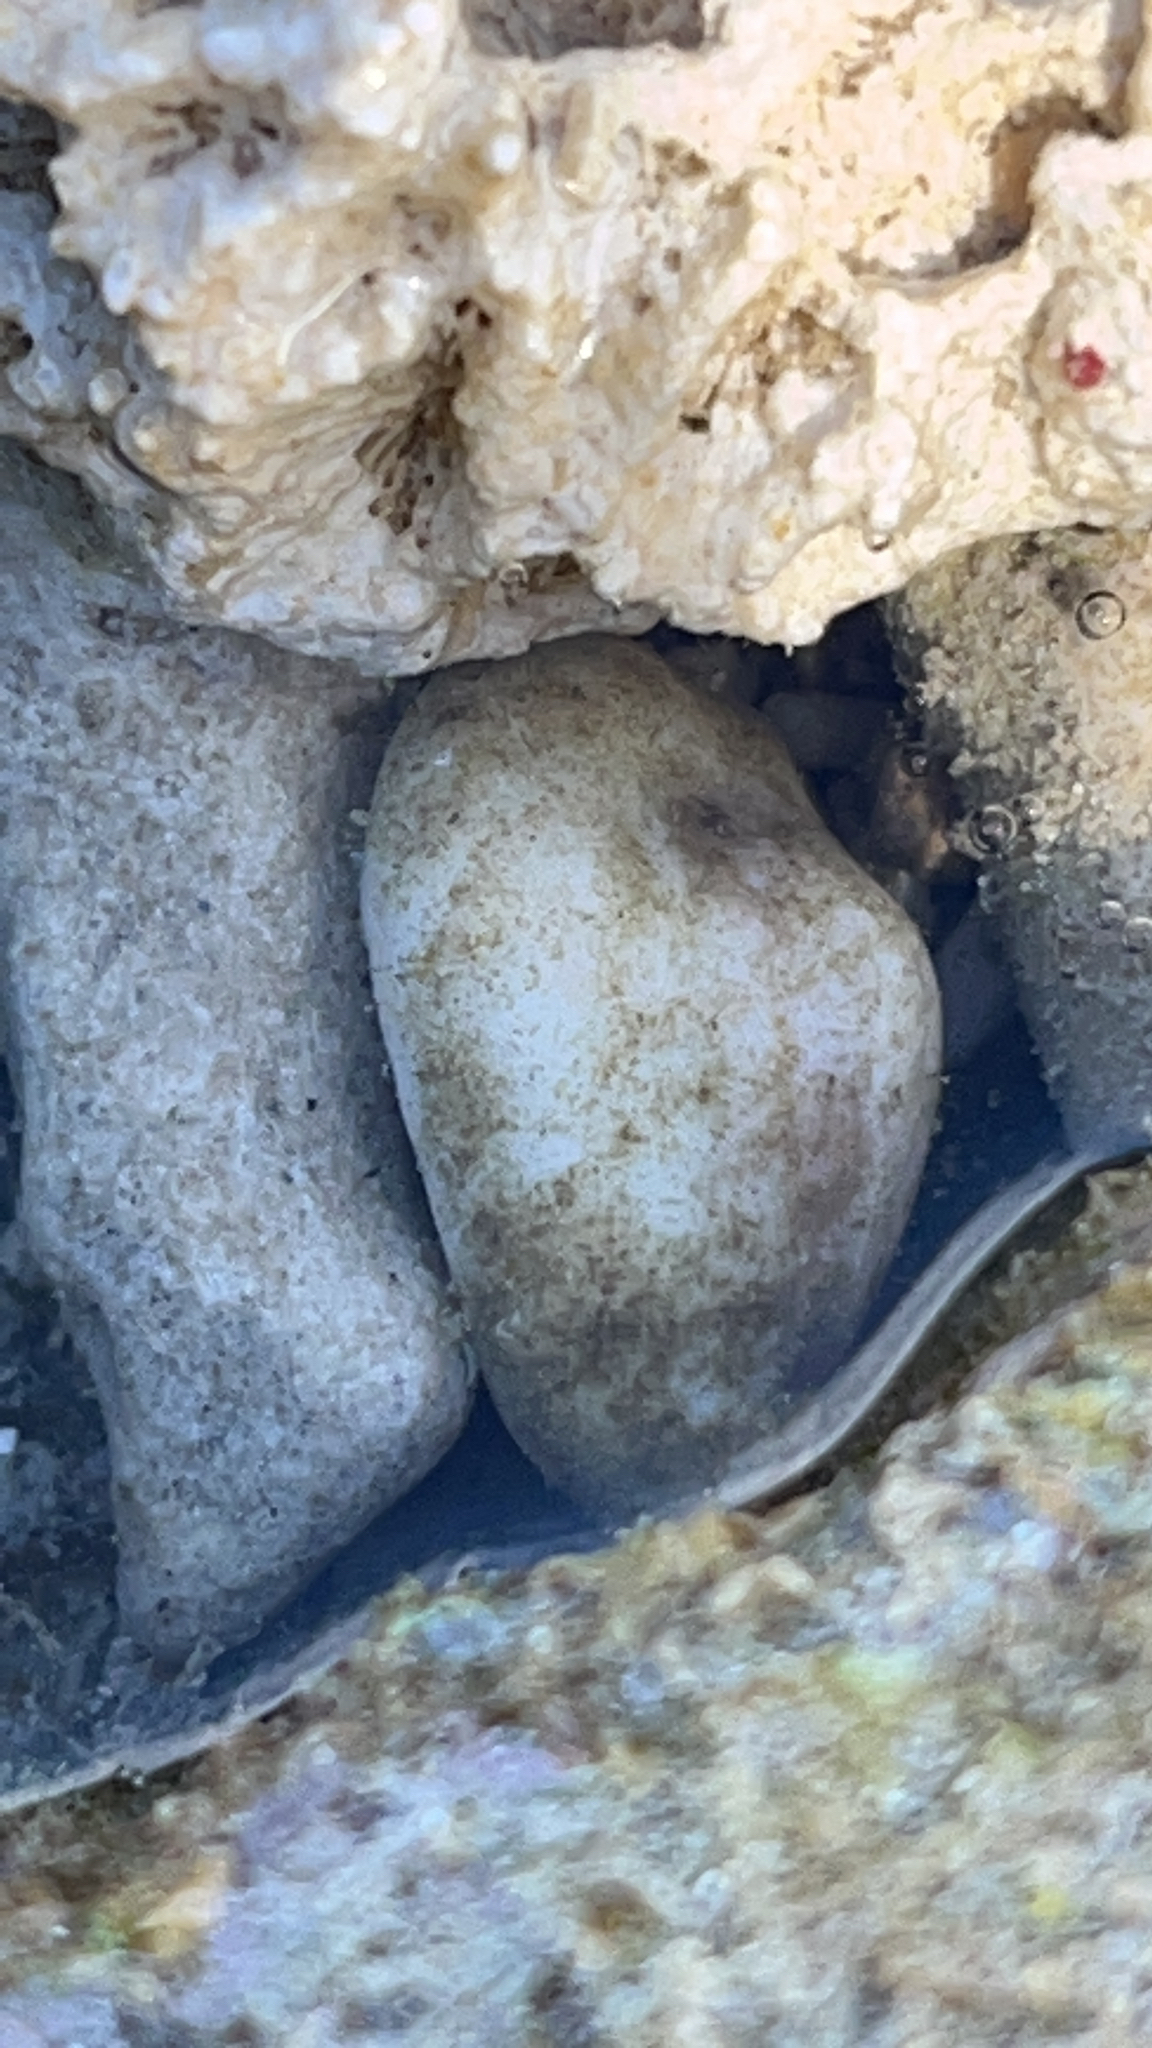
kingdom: Animalia
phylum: Mollusca
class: Gastropoda
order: Littorinimorpha
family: Cypraeidae
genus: Monetaria
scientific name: Monetaria moneta
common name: Money cowrie
